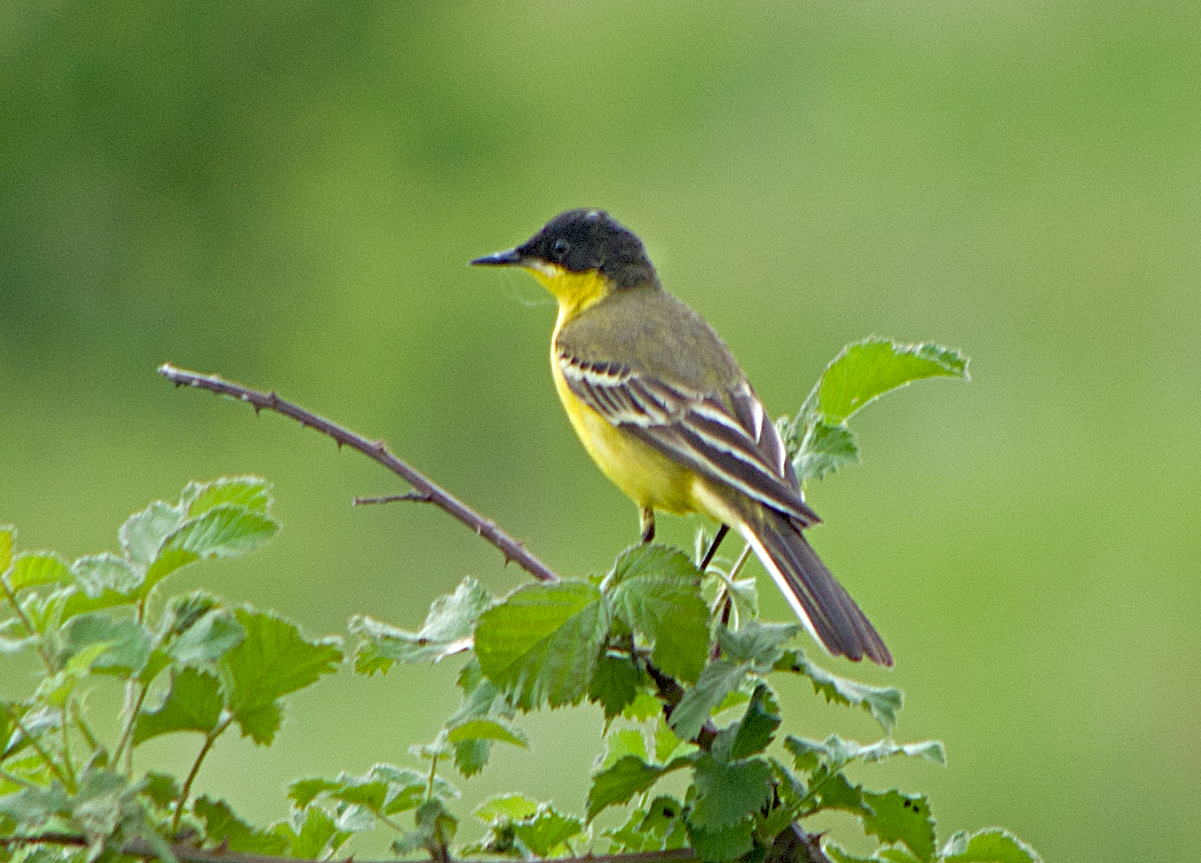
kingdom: Animalia
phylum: Chordata
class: Aves
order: Passeriformes
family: Motacillidae
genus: Motacilla
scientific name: Motacilla flava
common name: Western yellow wagtail
